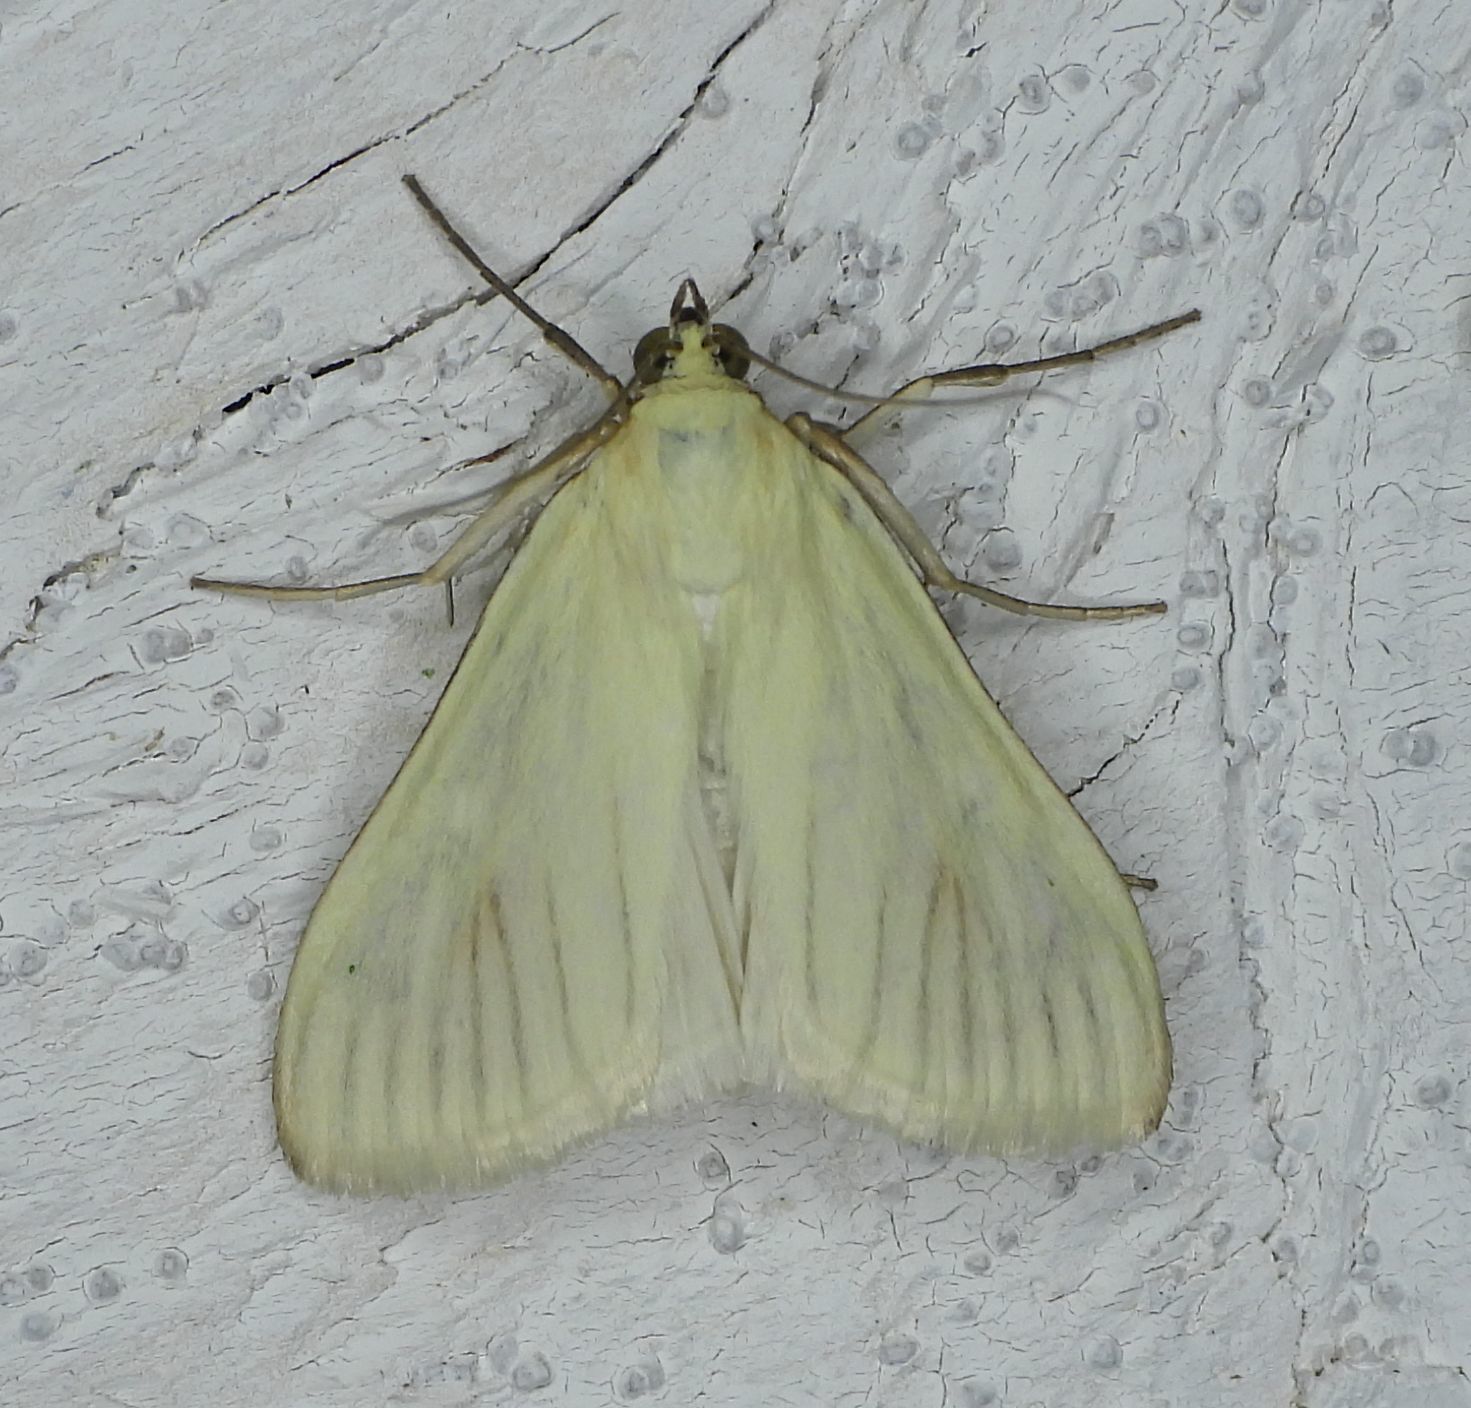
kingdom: Animalia
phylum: Arthropoda
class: Insecta
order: Lepidoptera
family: Crambidae
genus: Sitochroa
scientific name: Sitochroa palealis
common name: Greenish-yellow sitochroa moth
